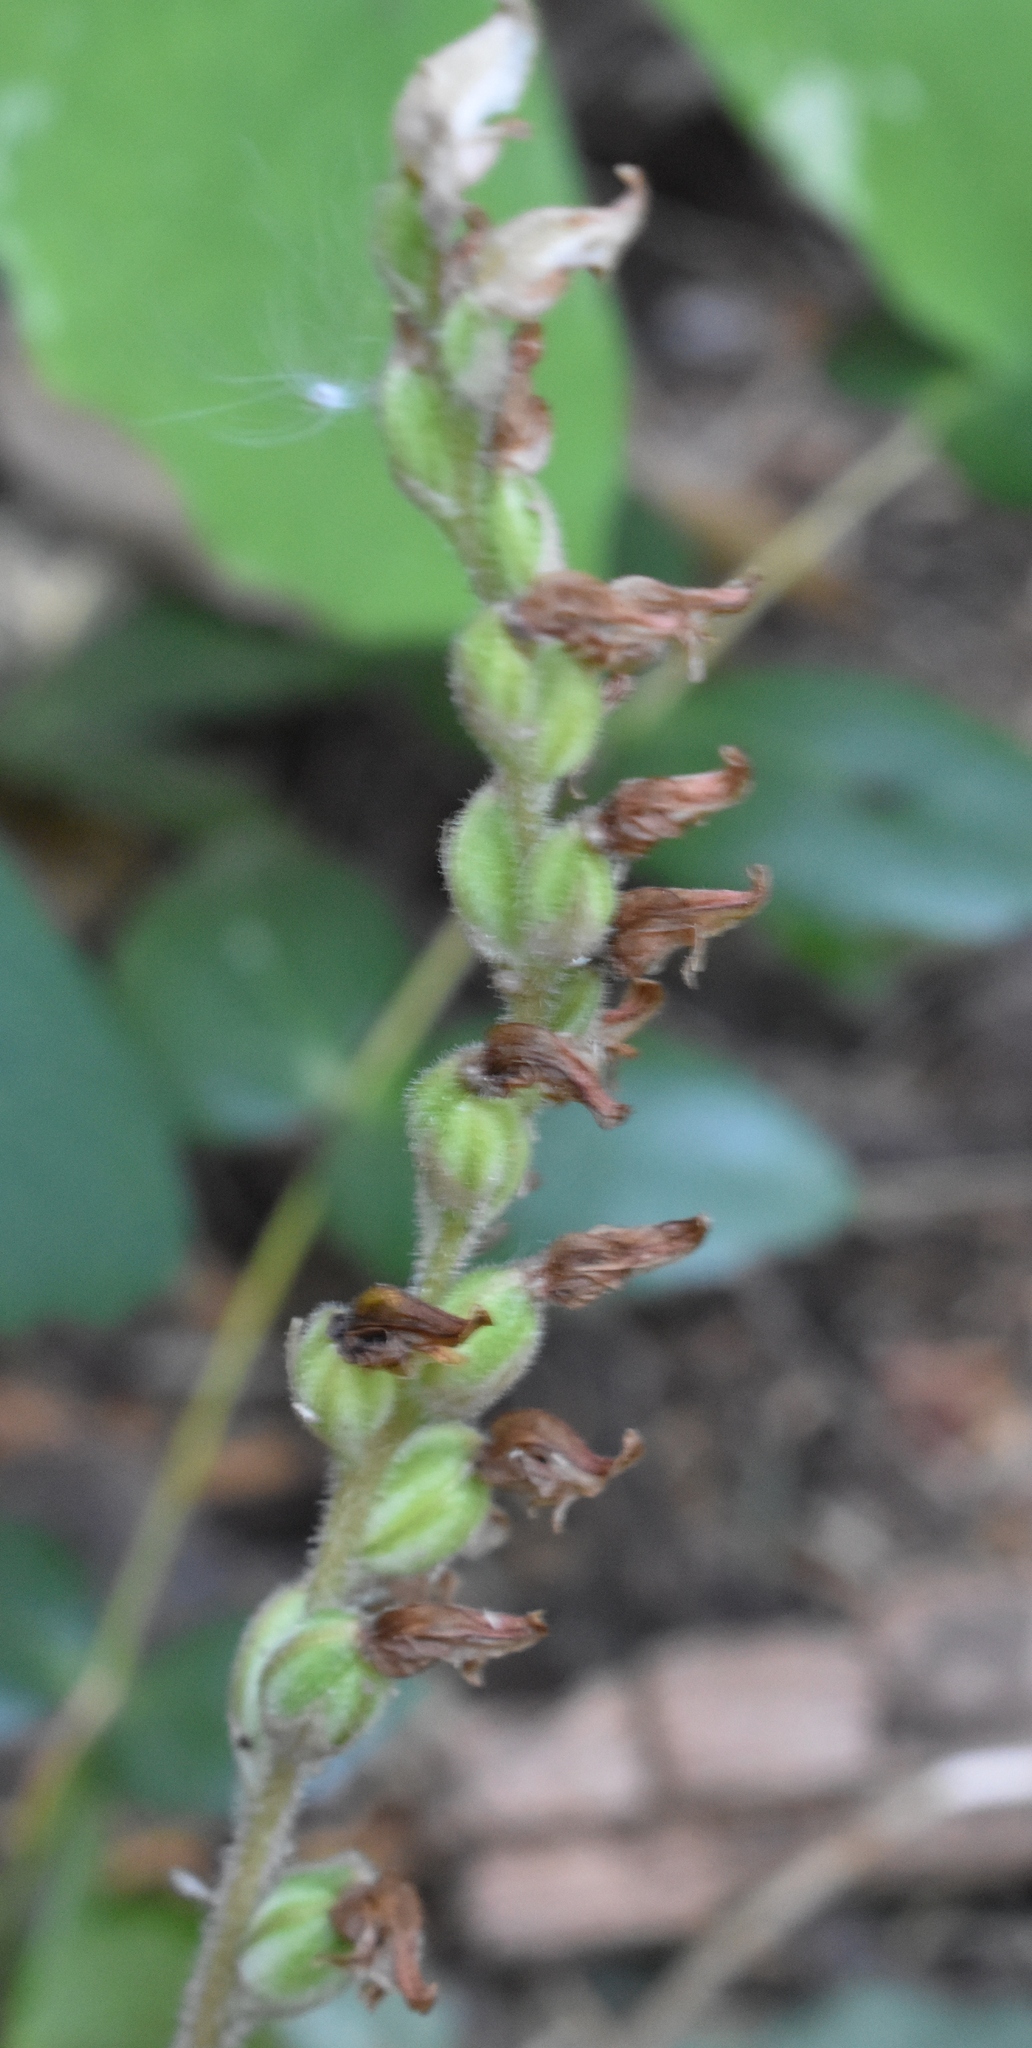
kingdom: Plantae
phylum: Tracheophyta
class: Liliopsida
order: Asparagales
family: Orchidaceae
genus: Goodyera
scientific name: Goodyera oblongifolia
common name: Giant rattlesnake-plantain
